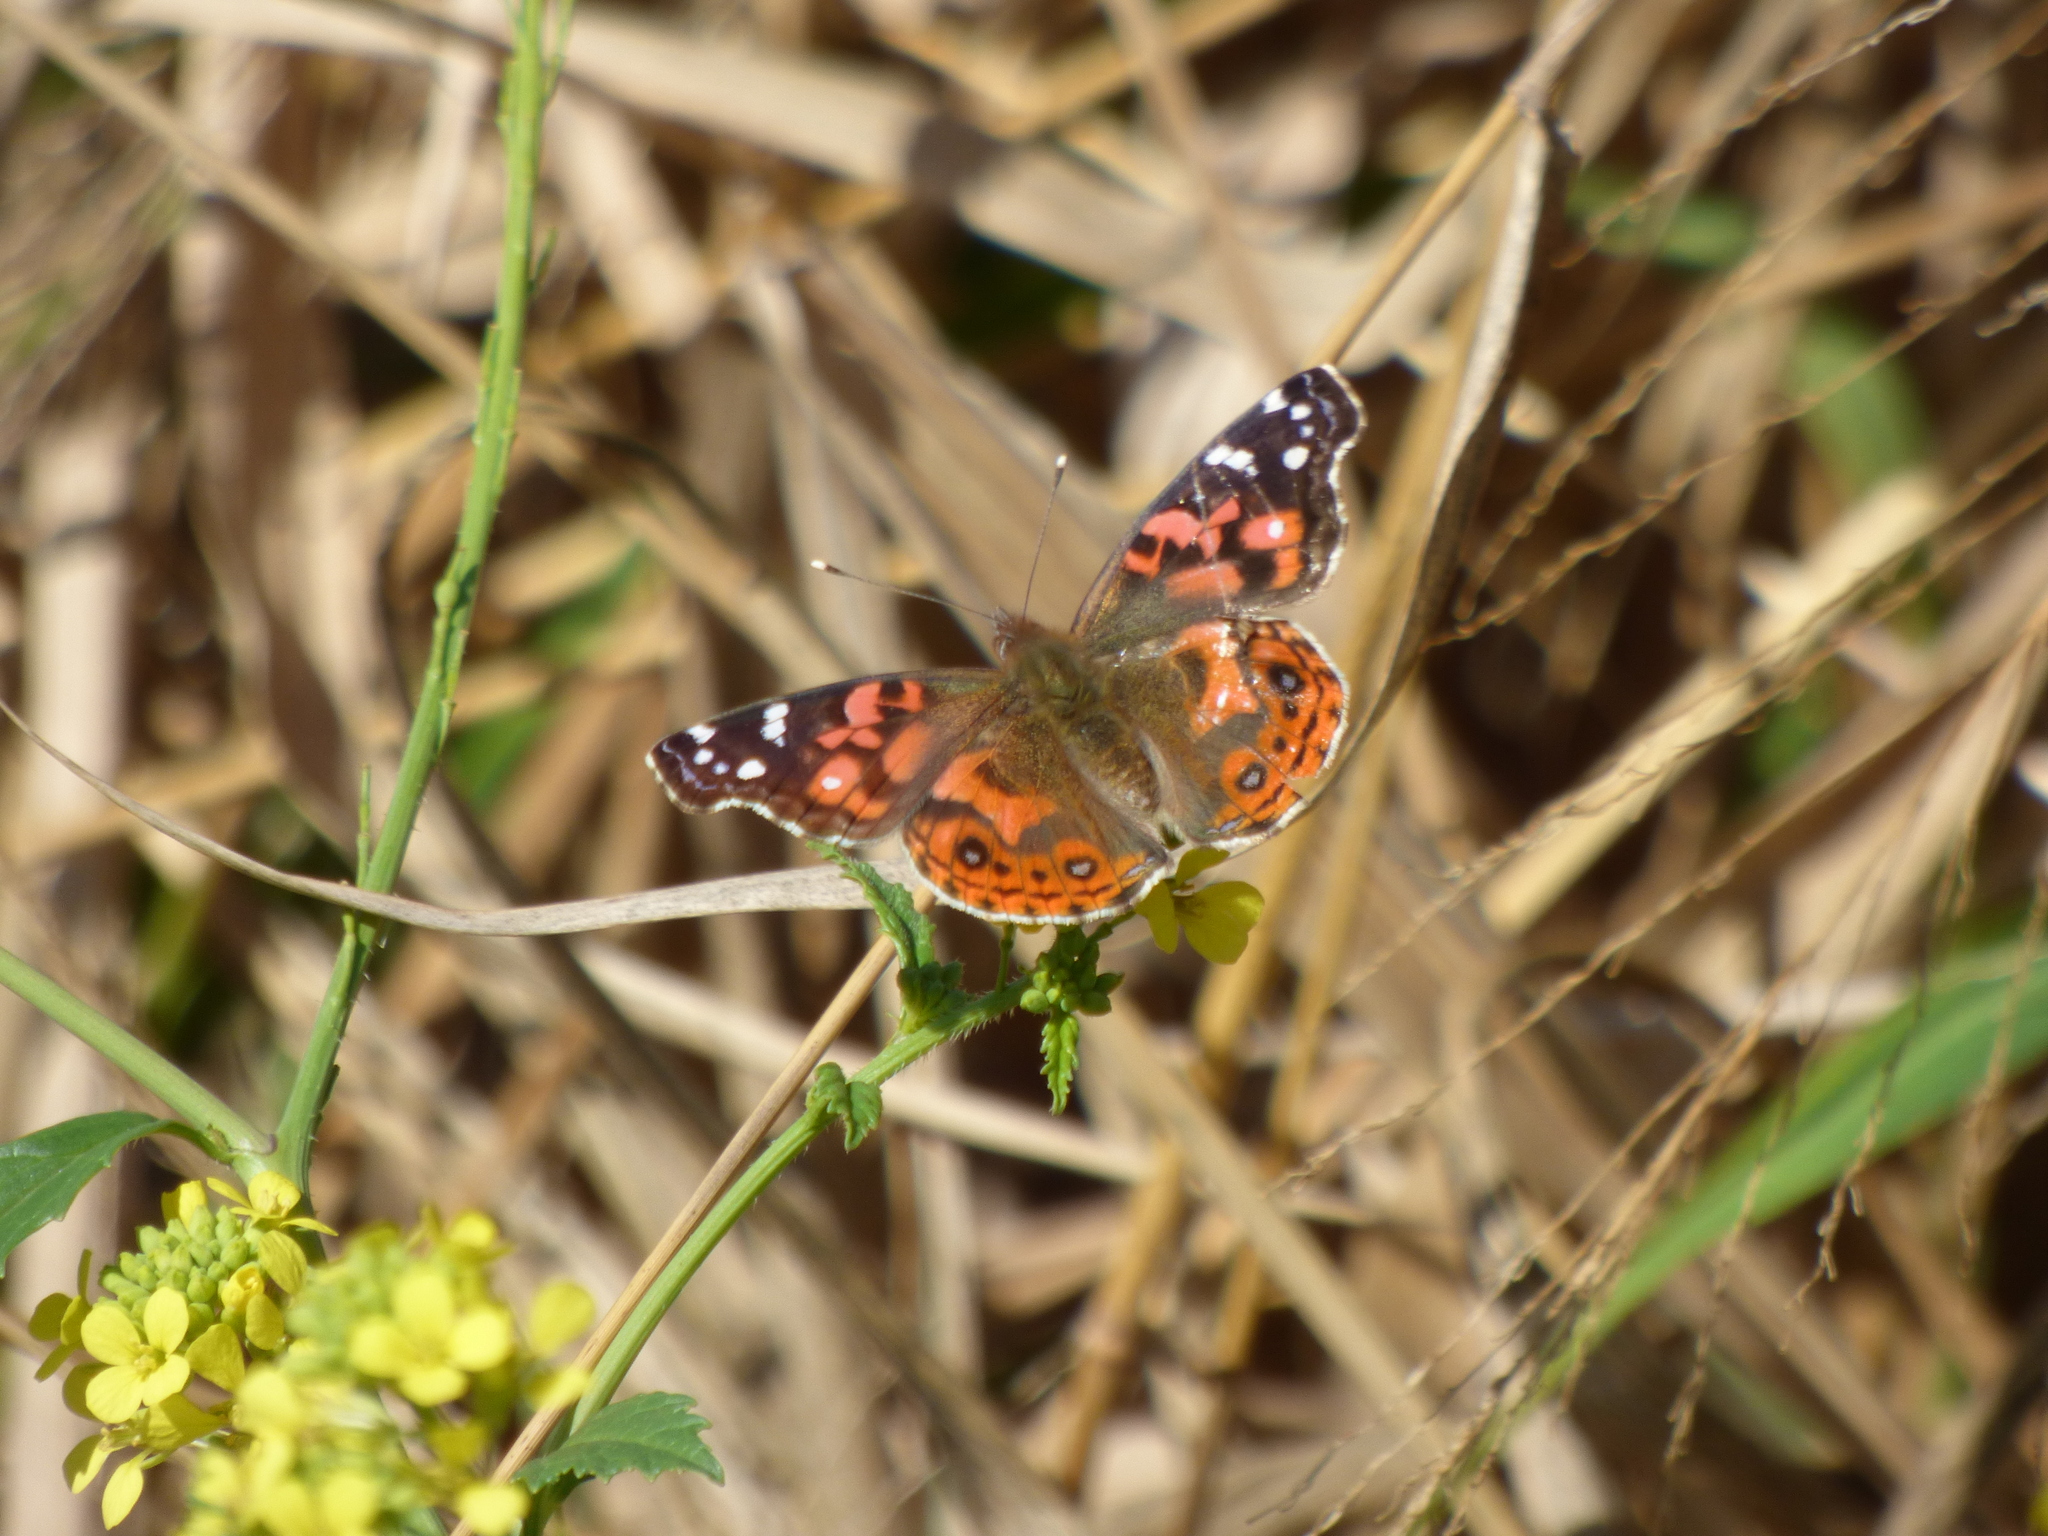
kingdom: Animalia
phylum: Arthropoda
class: Insecta
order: Lepidoptera
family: Nymphalidae
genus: Vanessa
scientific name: Vanessa braziliensis
